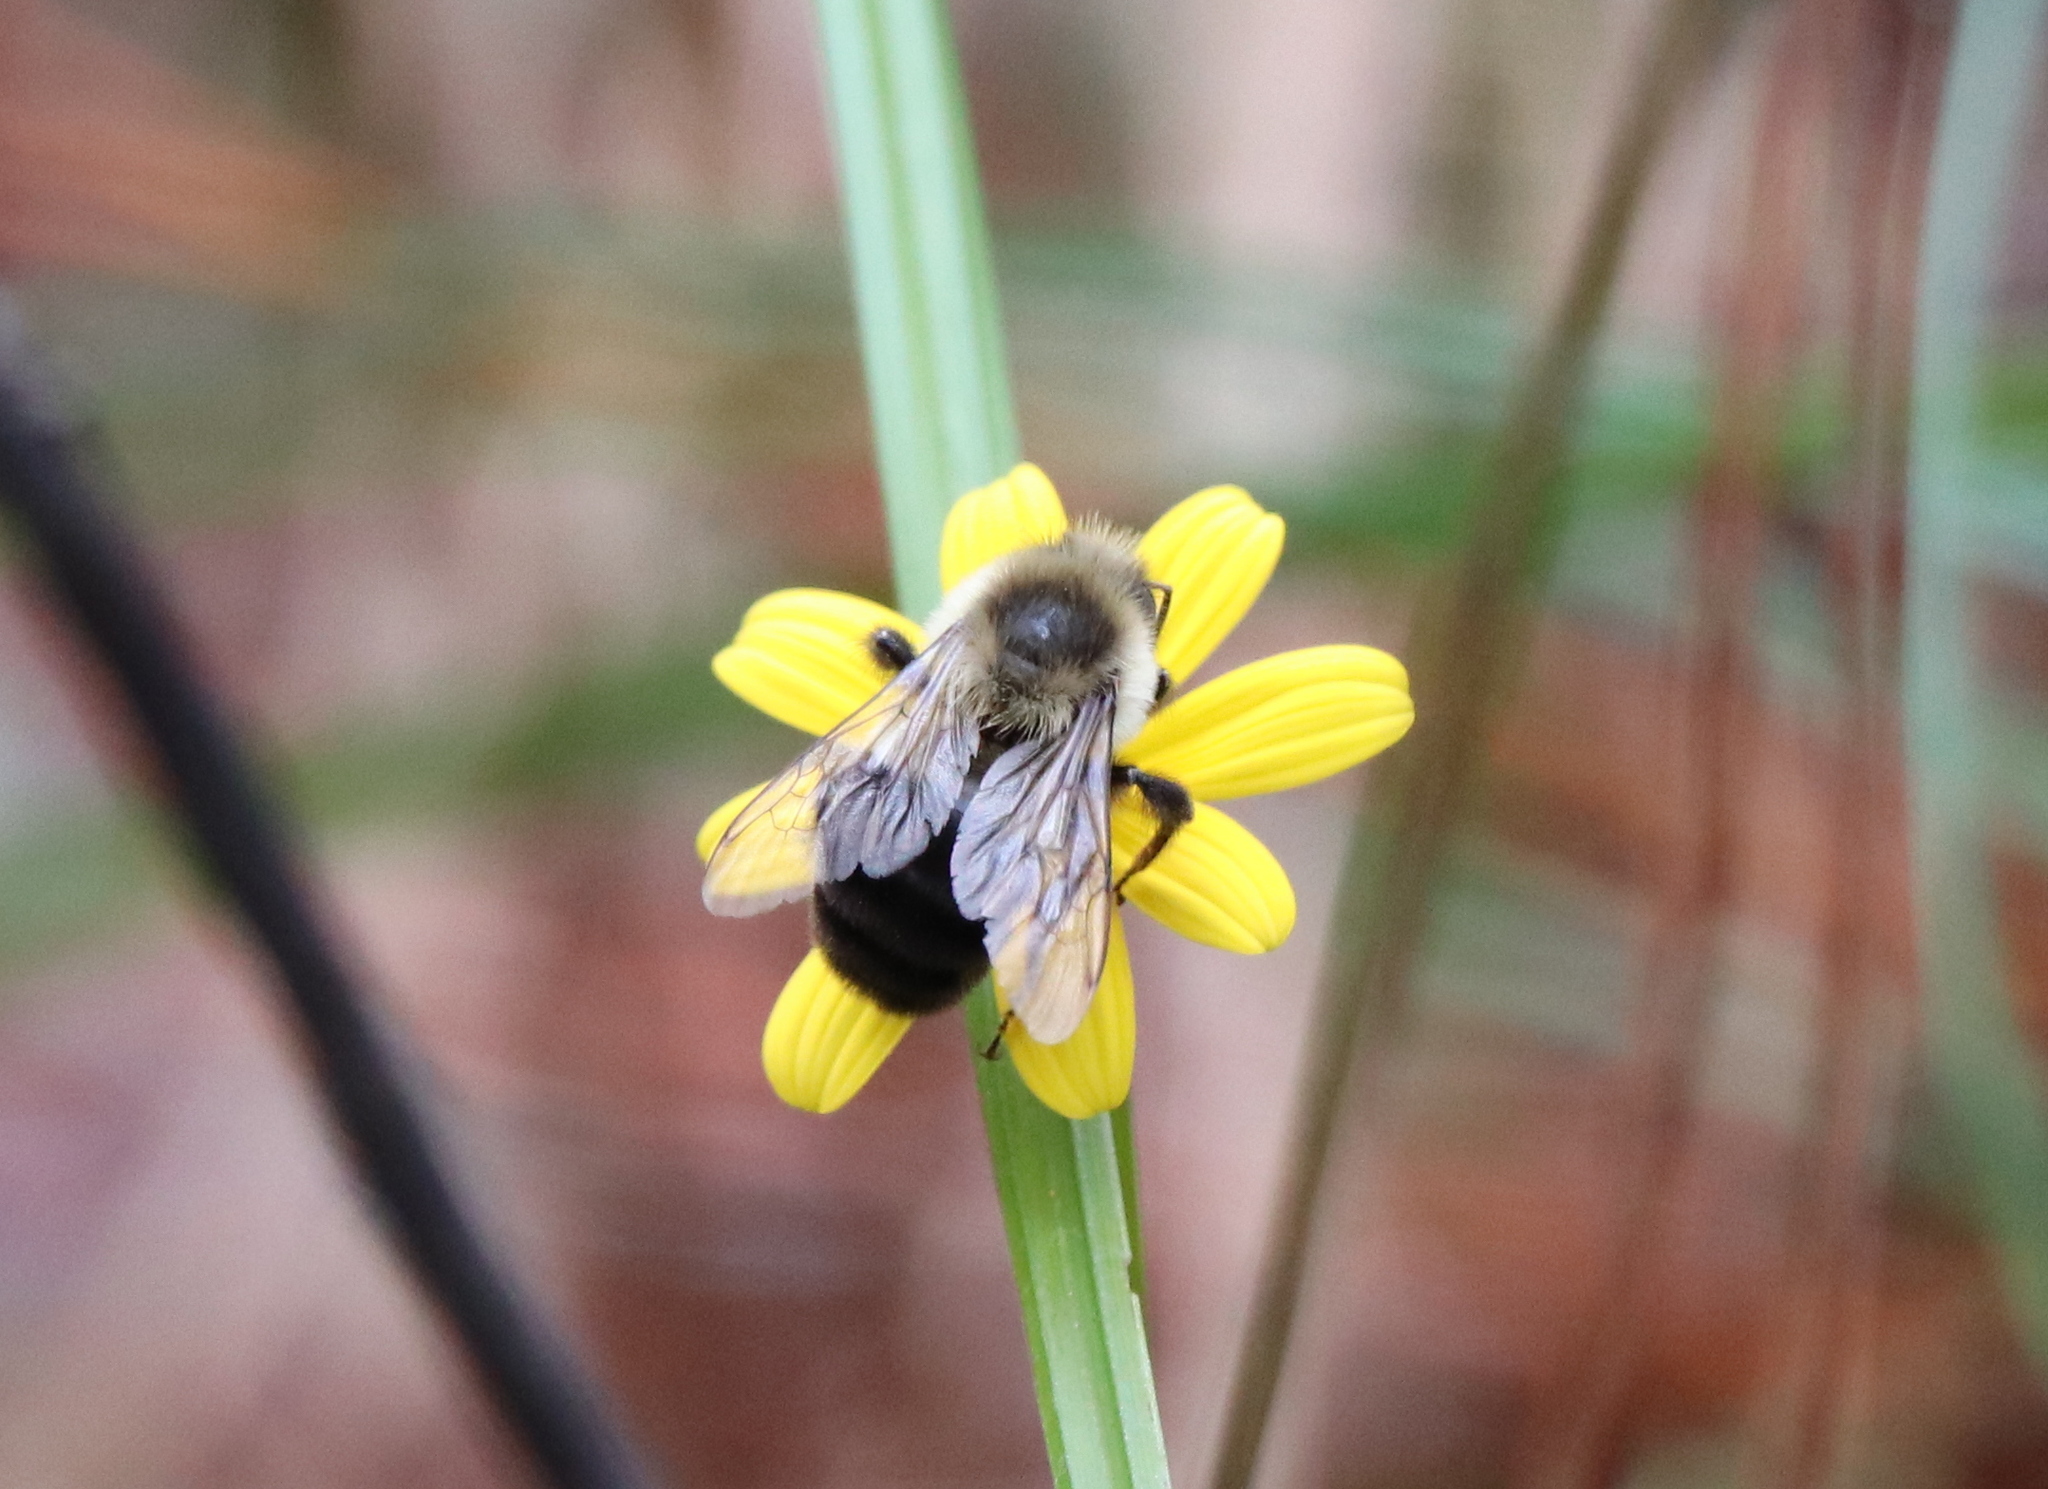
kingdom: Animalia
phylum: Arthropoda
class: Insecta
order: Hymenoptera
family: Apidae
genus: Bombus
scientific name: Bombus impatiens
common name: Common eastern bumble bee
